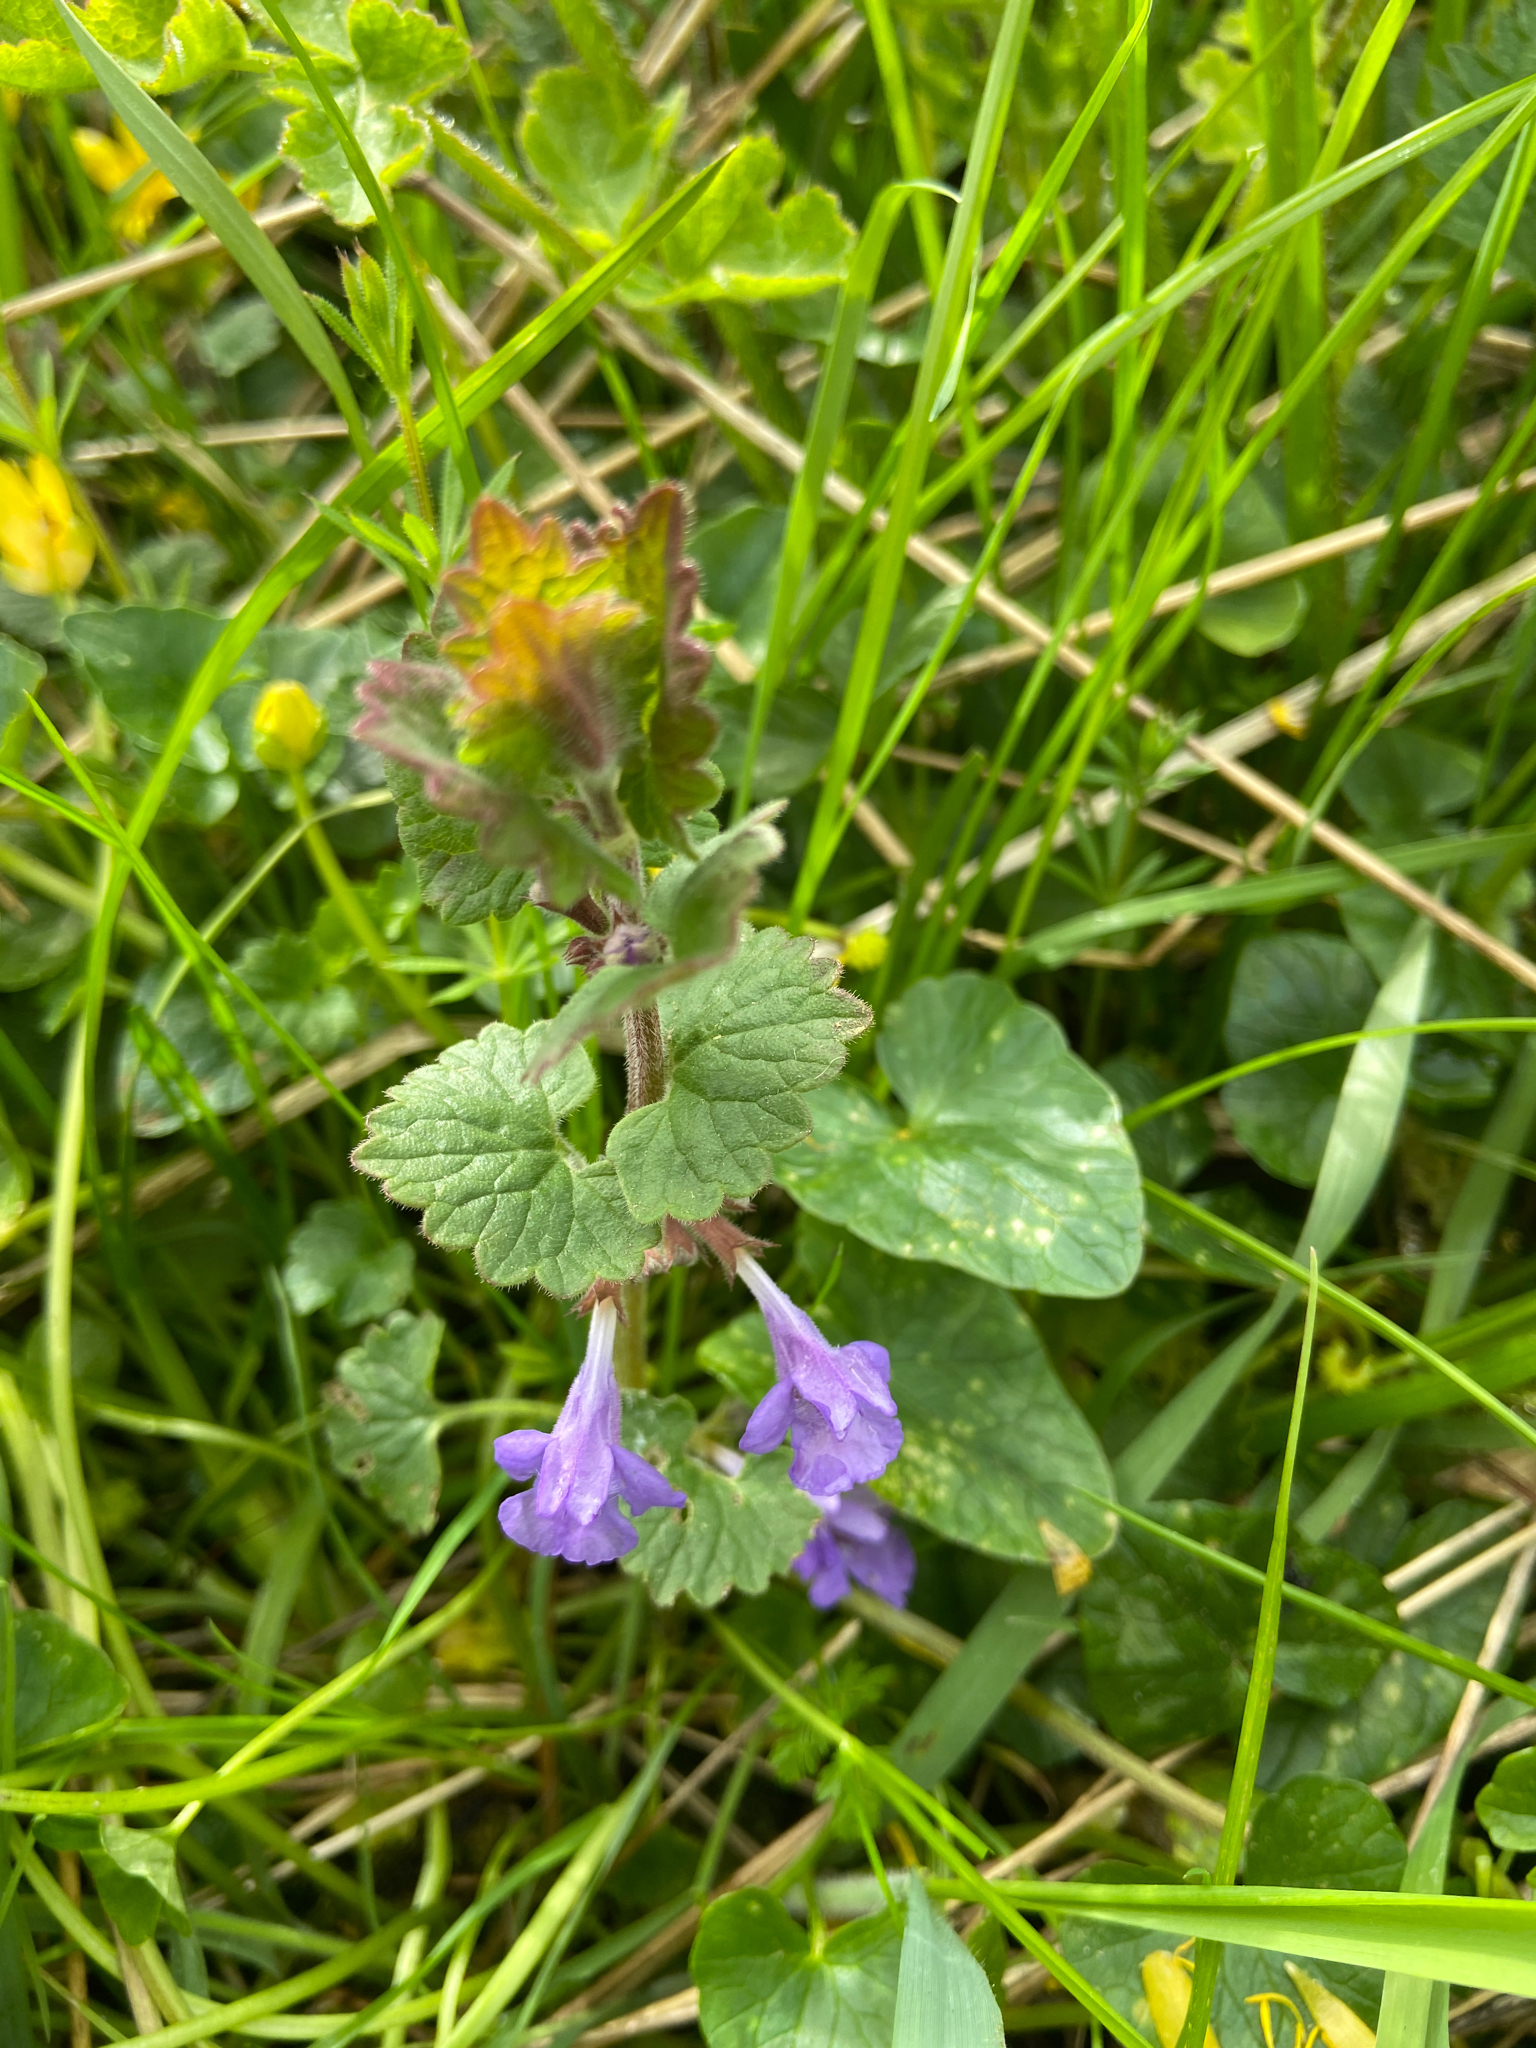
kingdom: Plantae
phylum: Tracheophyta
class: Magnoliopsida
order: Lamiales
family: Lamiaceae
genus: Glechoma
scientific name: Glechoma hederacea
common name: Ground ivy
